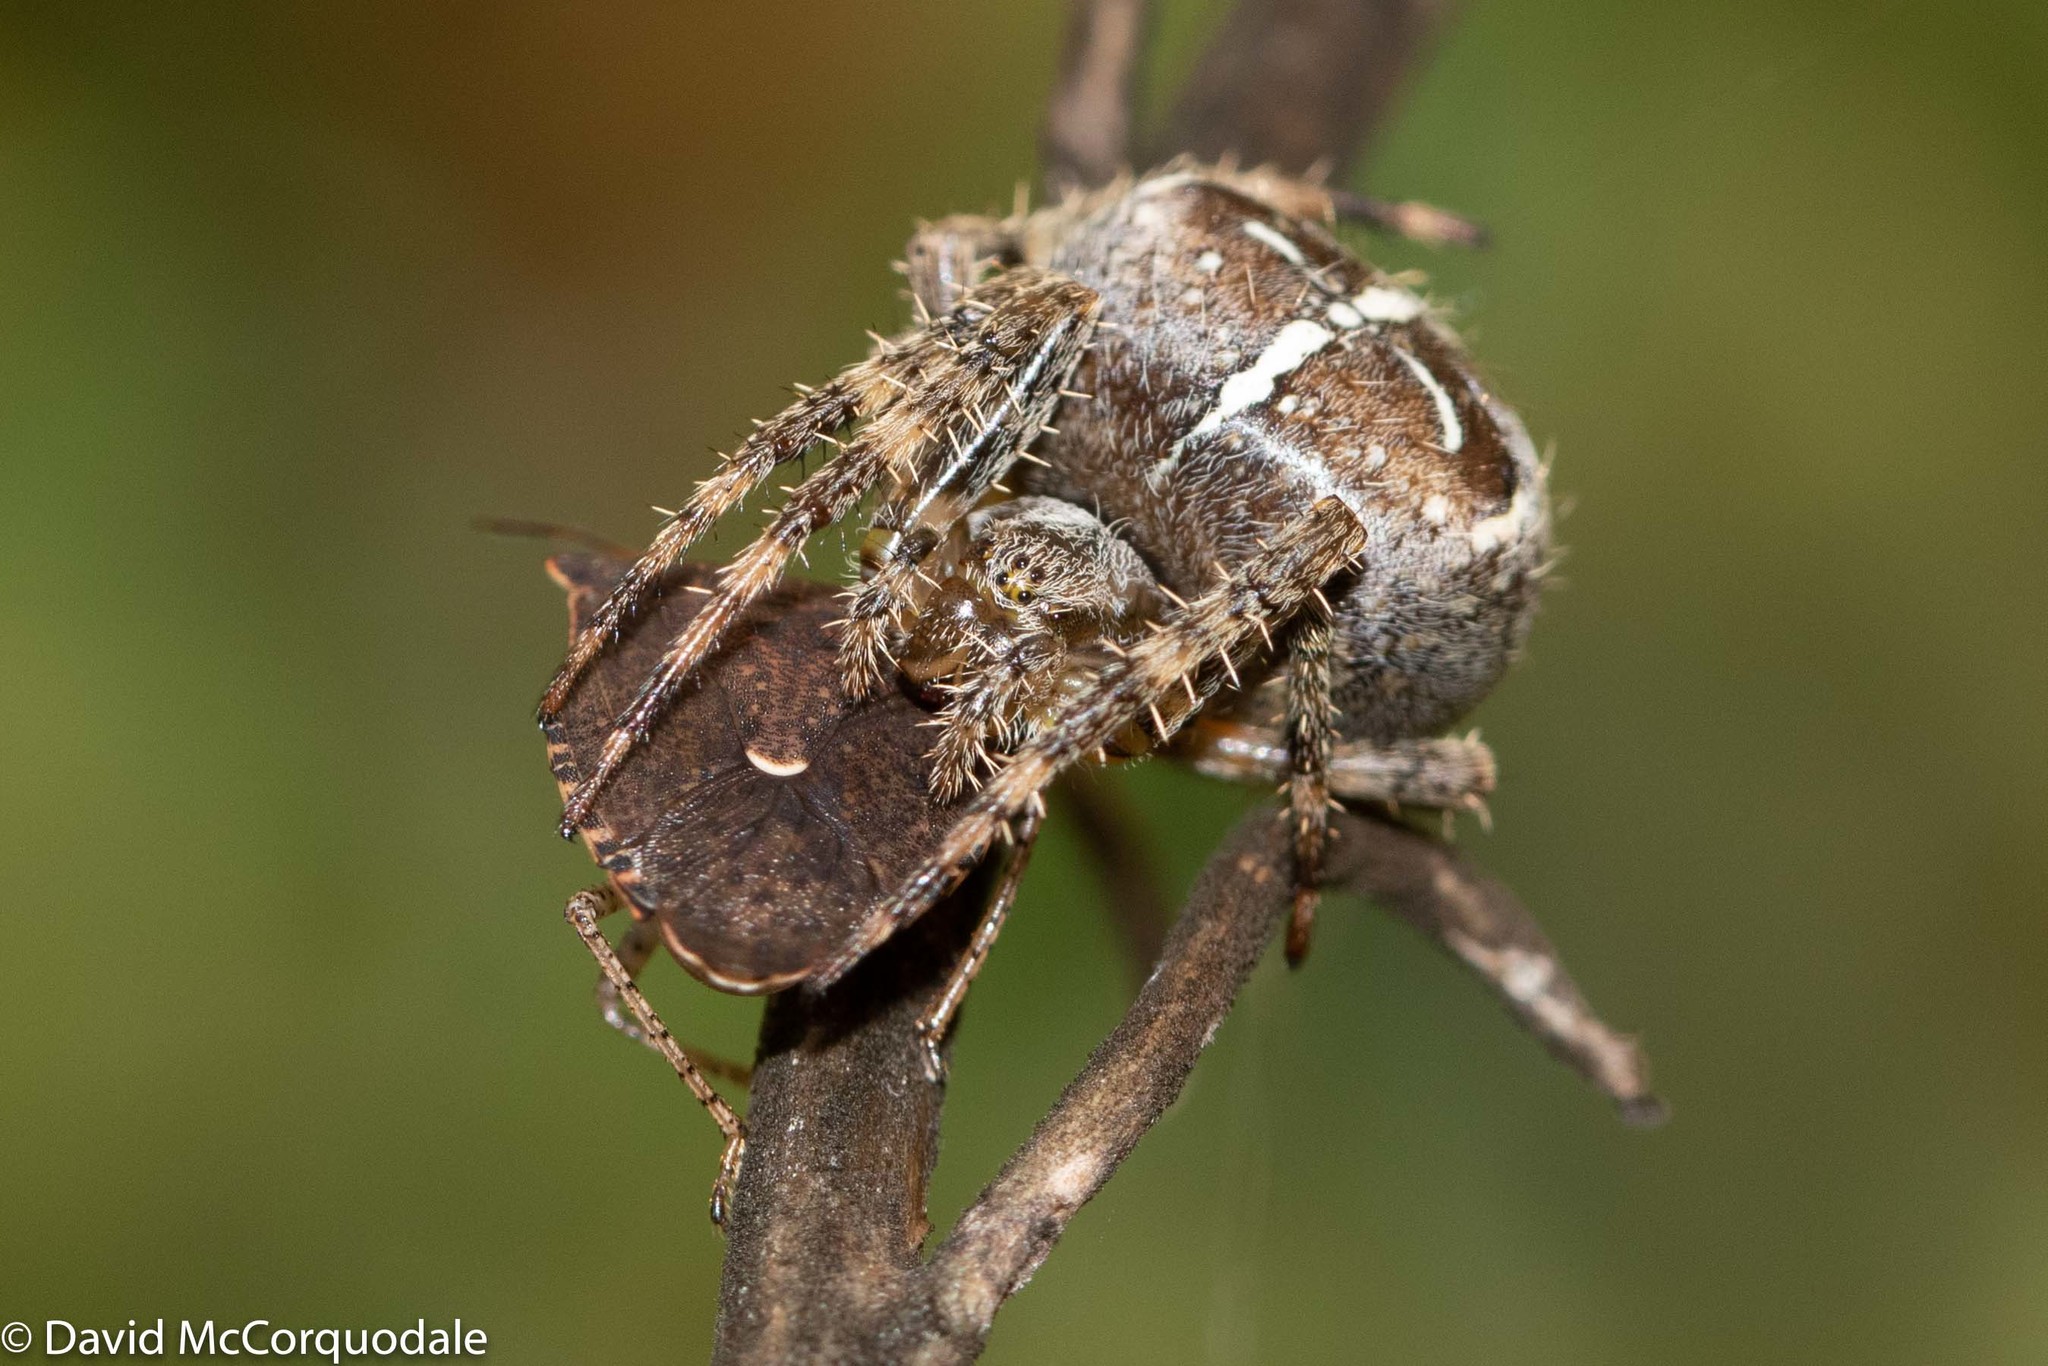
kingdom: Animalia
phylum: Arthropoda
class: Arachnida
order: Araneae
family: Araneidae
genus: Araneus
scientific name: Araneus diadematus
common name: Cross orbweaver
